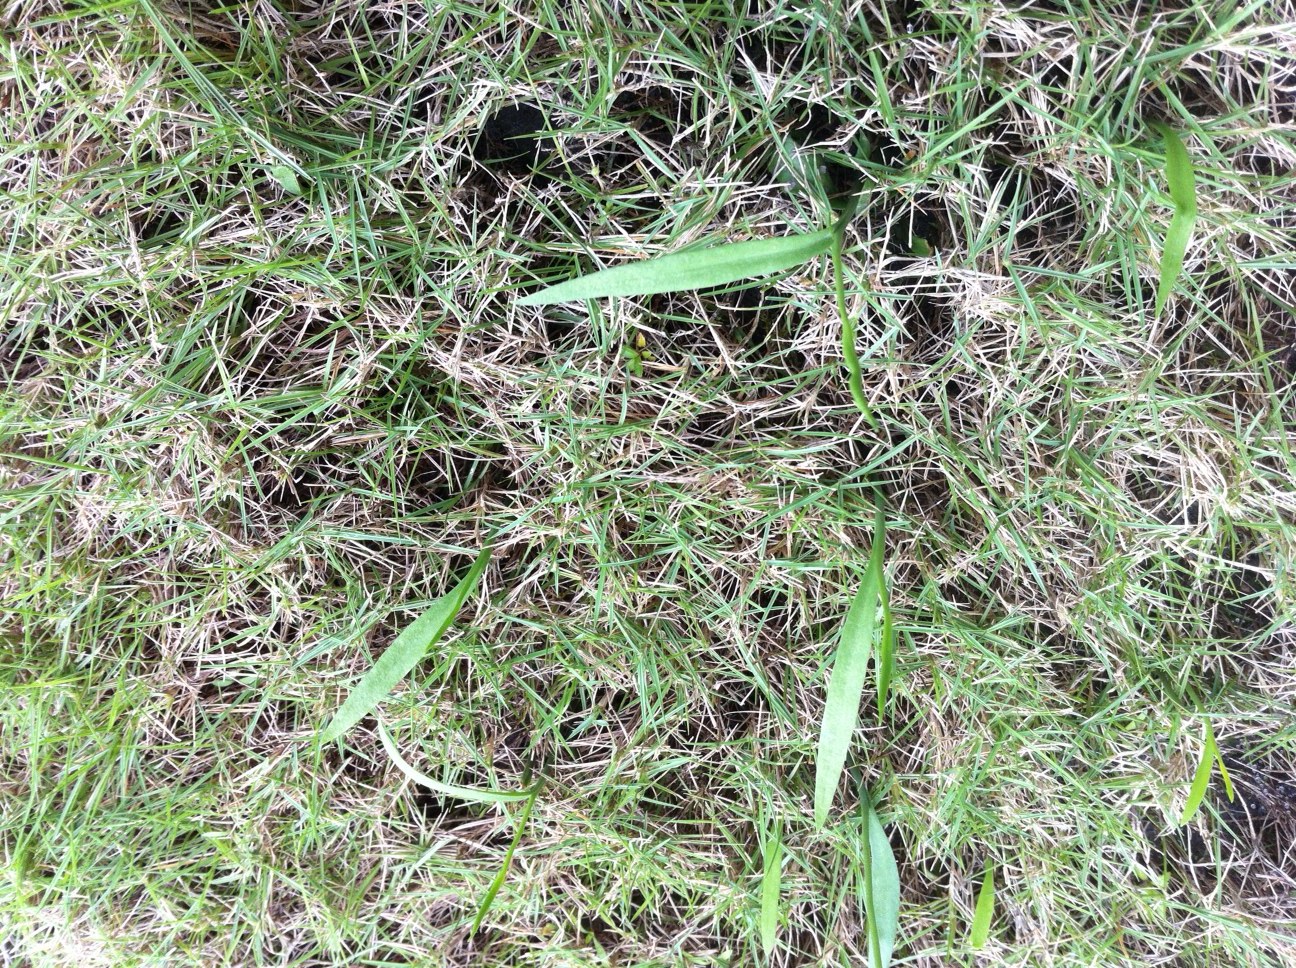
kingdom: Plantae
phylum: Tracheophyta
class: Polypodiopsida
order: Ophioglossales
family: Ophioglossaceae
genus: Ophioglossum
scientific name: Ophioglossum thermale
